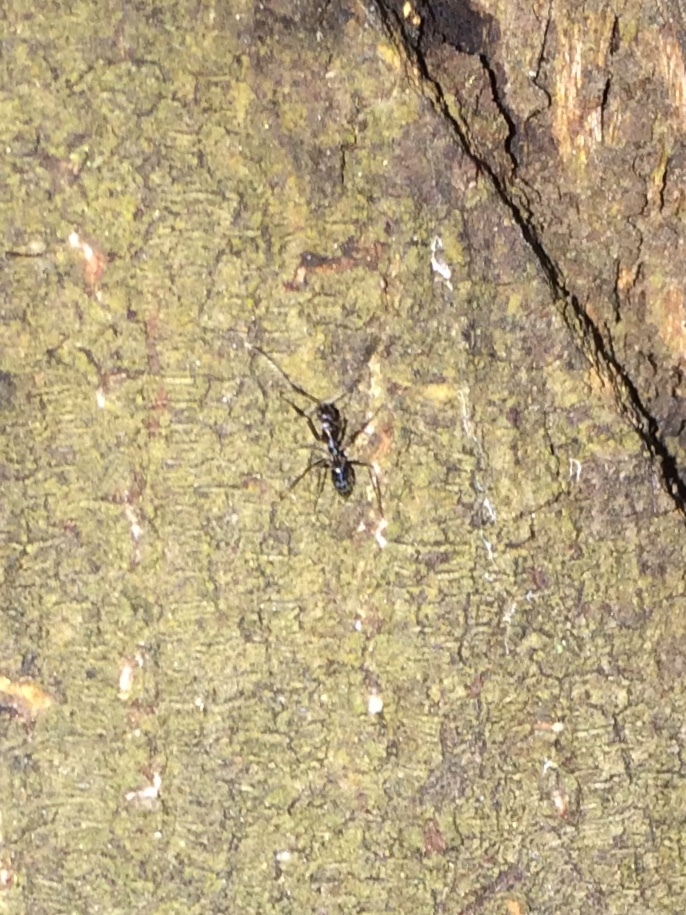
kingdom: Animalia
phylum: Arthropoda
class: Insecta
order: Hymenoptera
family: Formicidae
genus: Paratrechina
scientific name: Paratrechina longicornis
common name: Longhorned crazy ant
